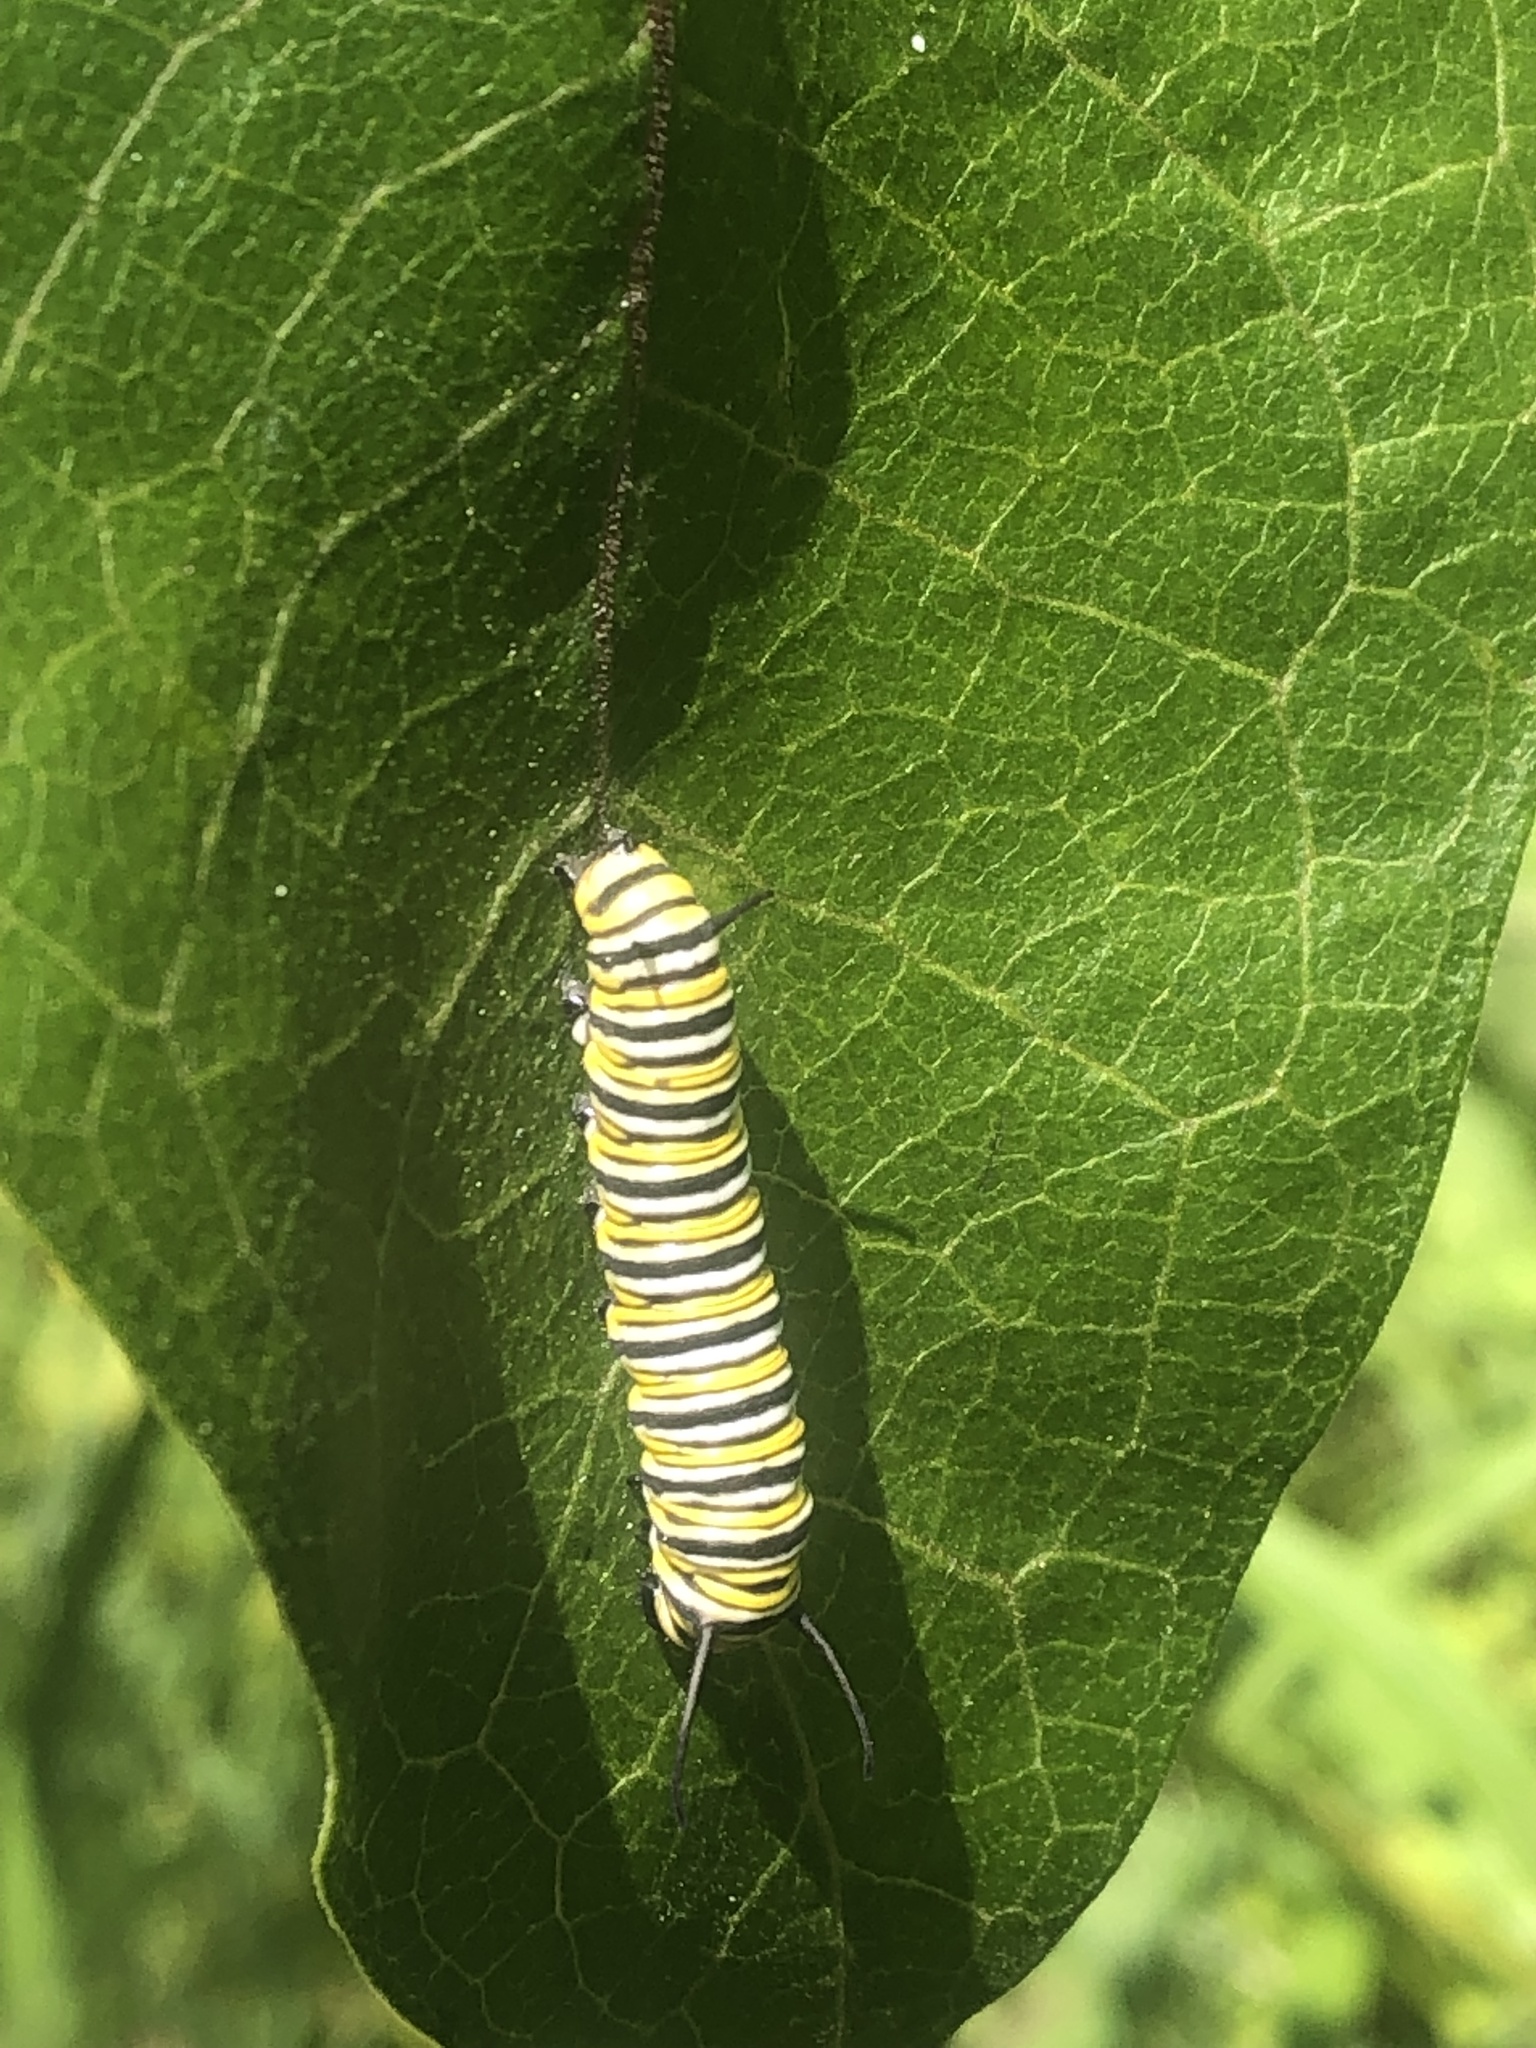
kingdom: Animalia
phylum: Arthropoda
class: Insecta
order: Lepidoptera
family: Nymphalidae
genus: Danaus
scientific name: Danaus plexippus
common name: Monarch
